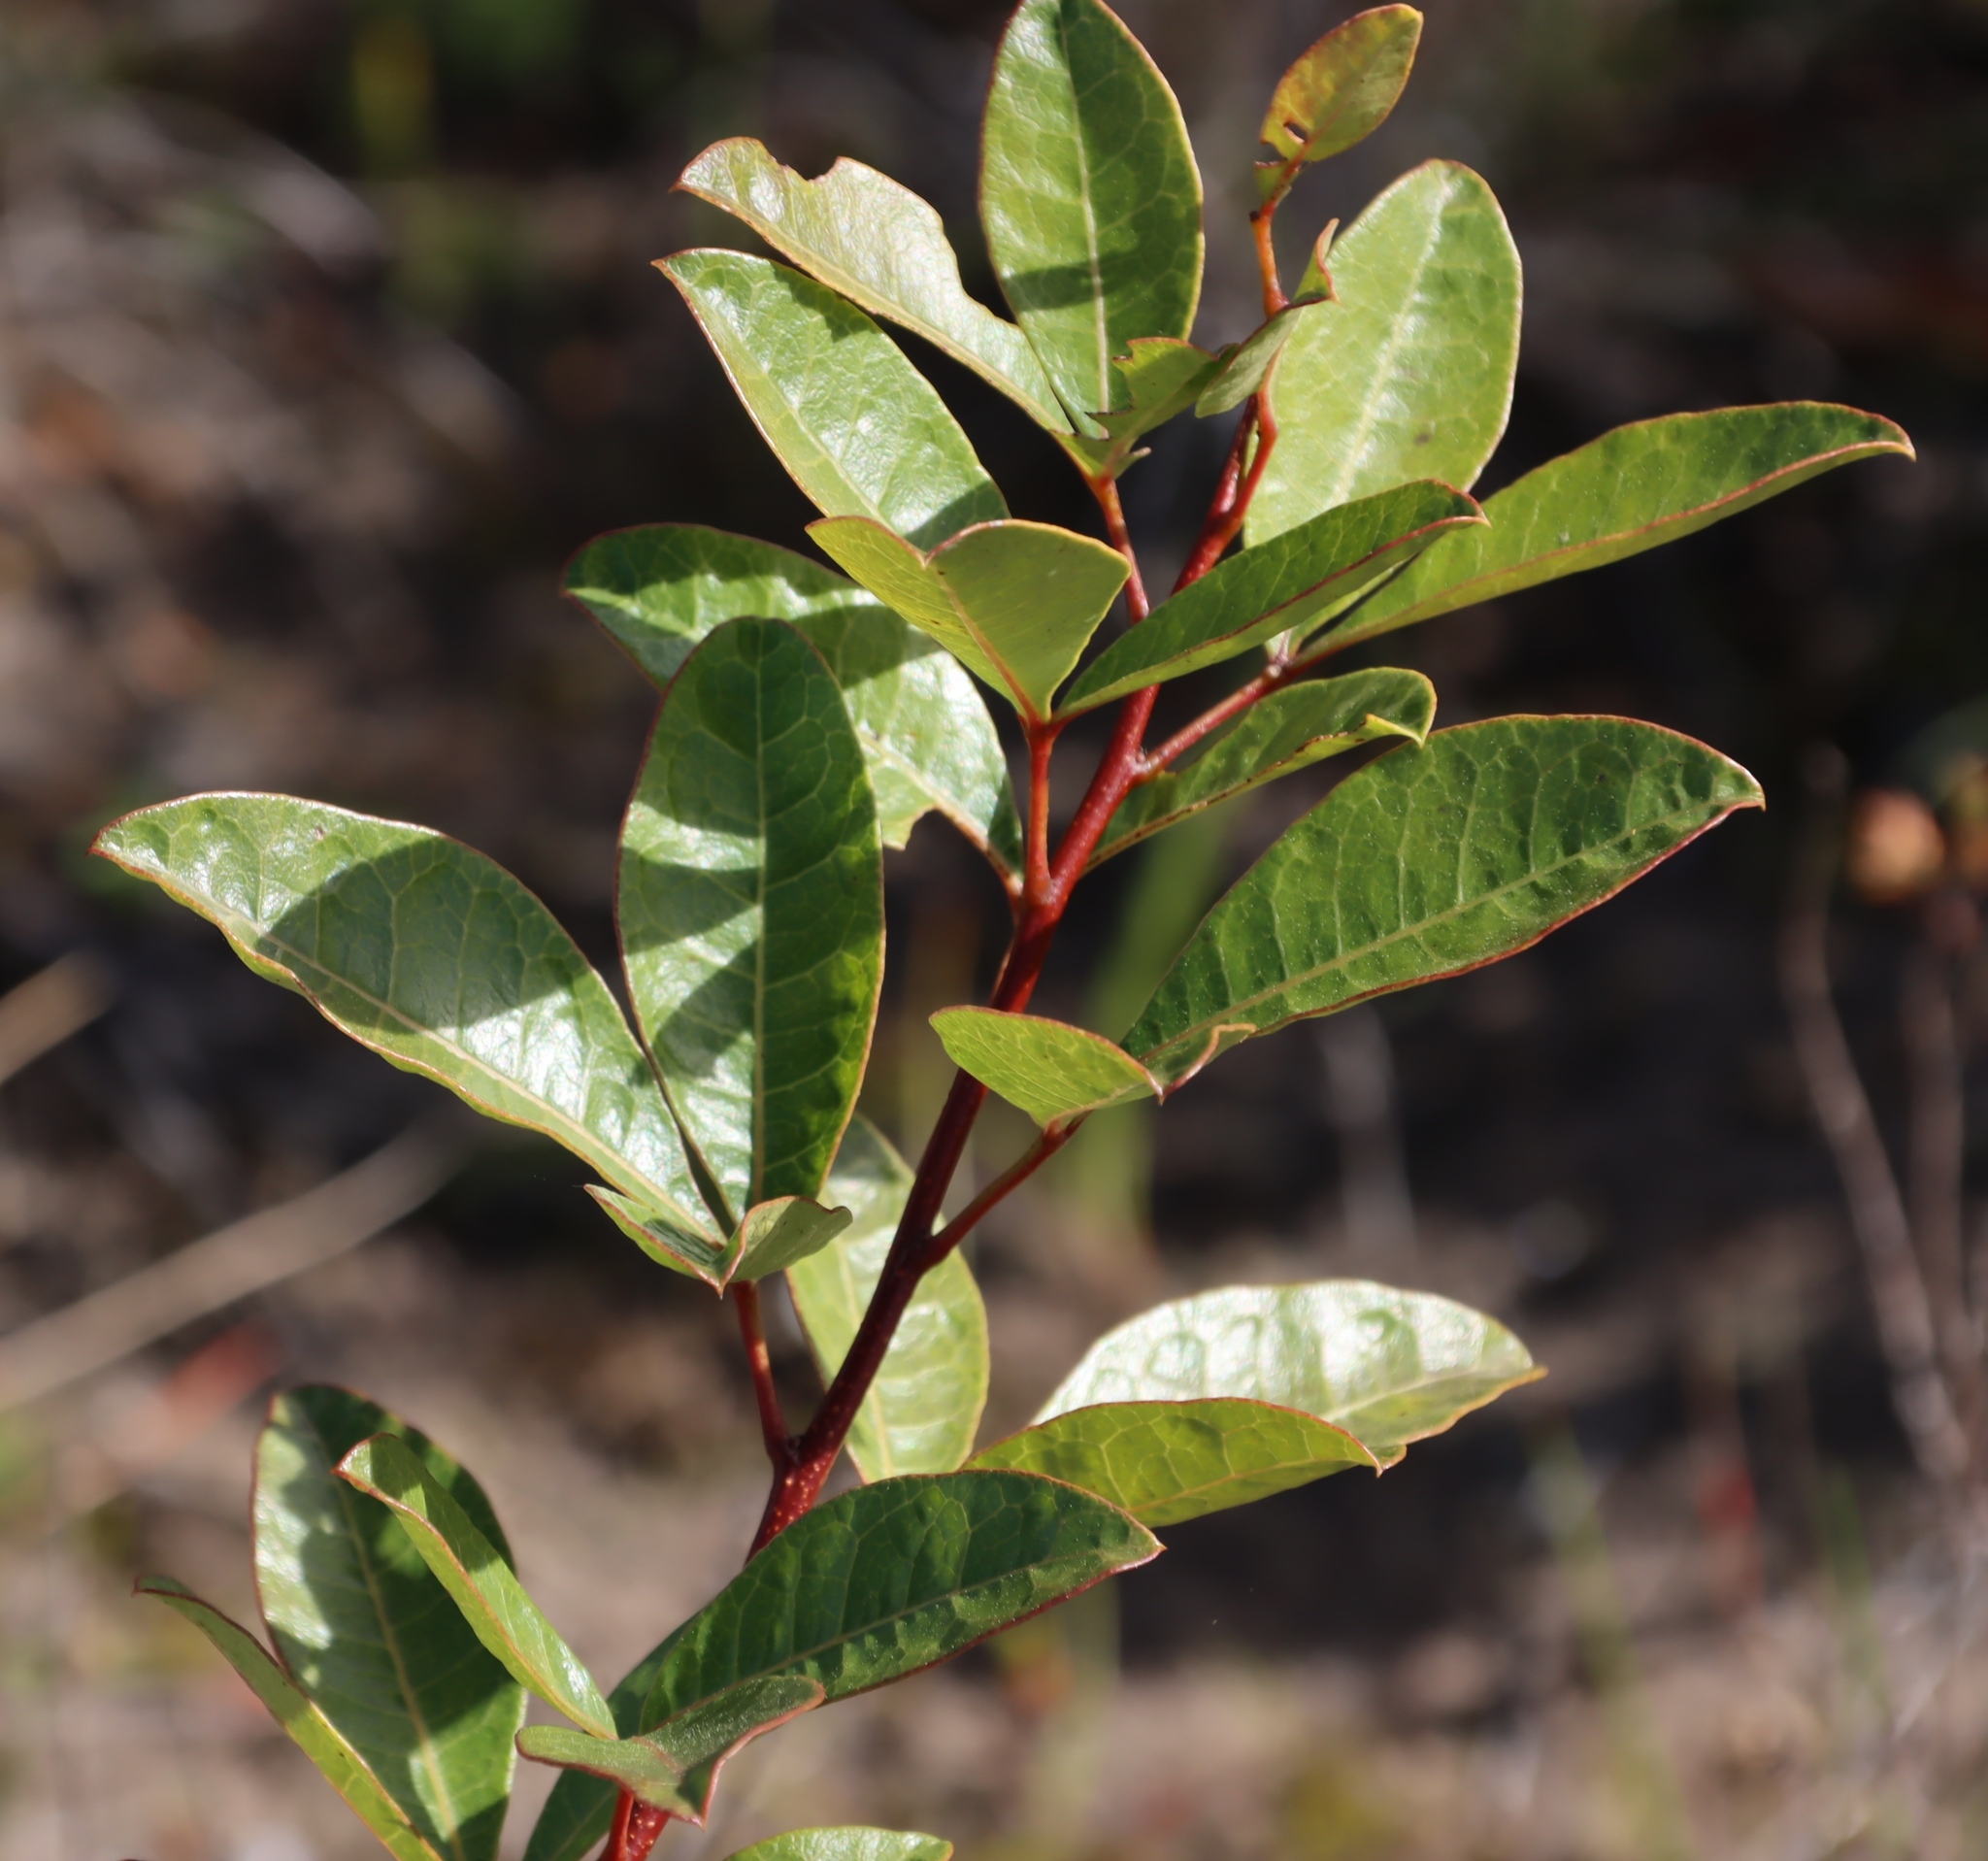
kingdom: Plantae
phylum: Tracheophyta
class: Magnoliopsida
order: Sapindales
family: Anacardiaceae
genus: Searsia
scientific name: Searsia laevigata
